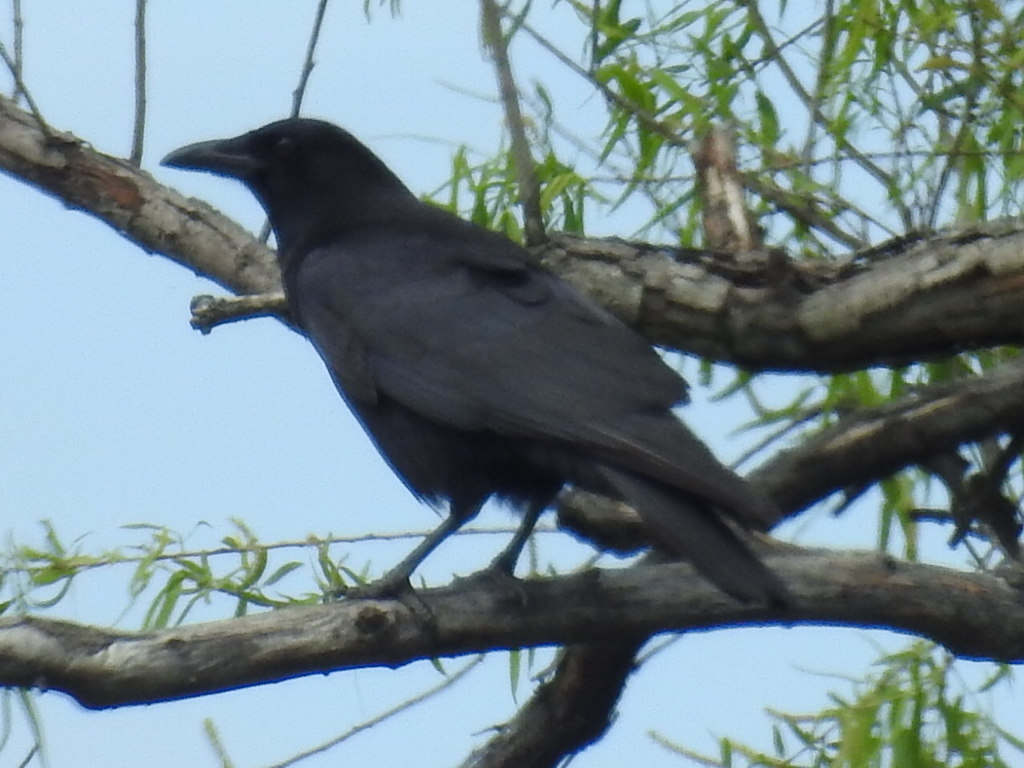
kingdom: Animalia
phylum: Chordata
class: Aves
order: Passeriformes
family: Corvidae
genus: Corvus
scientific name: Corvus brachyrhynchos
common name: American crow
